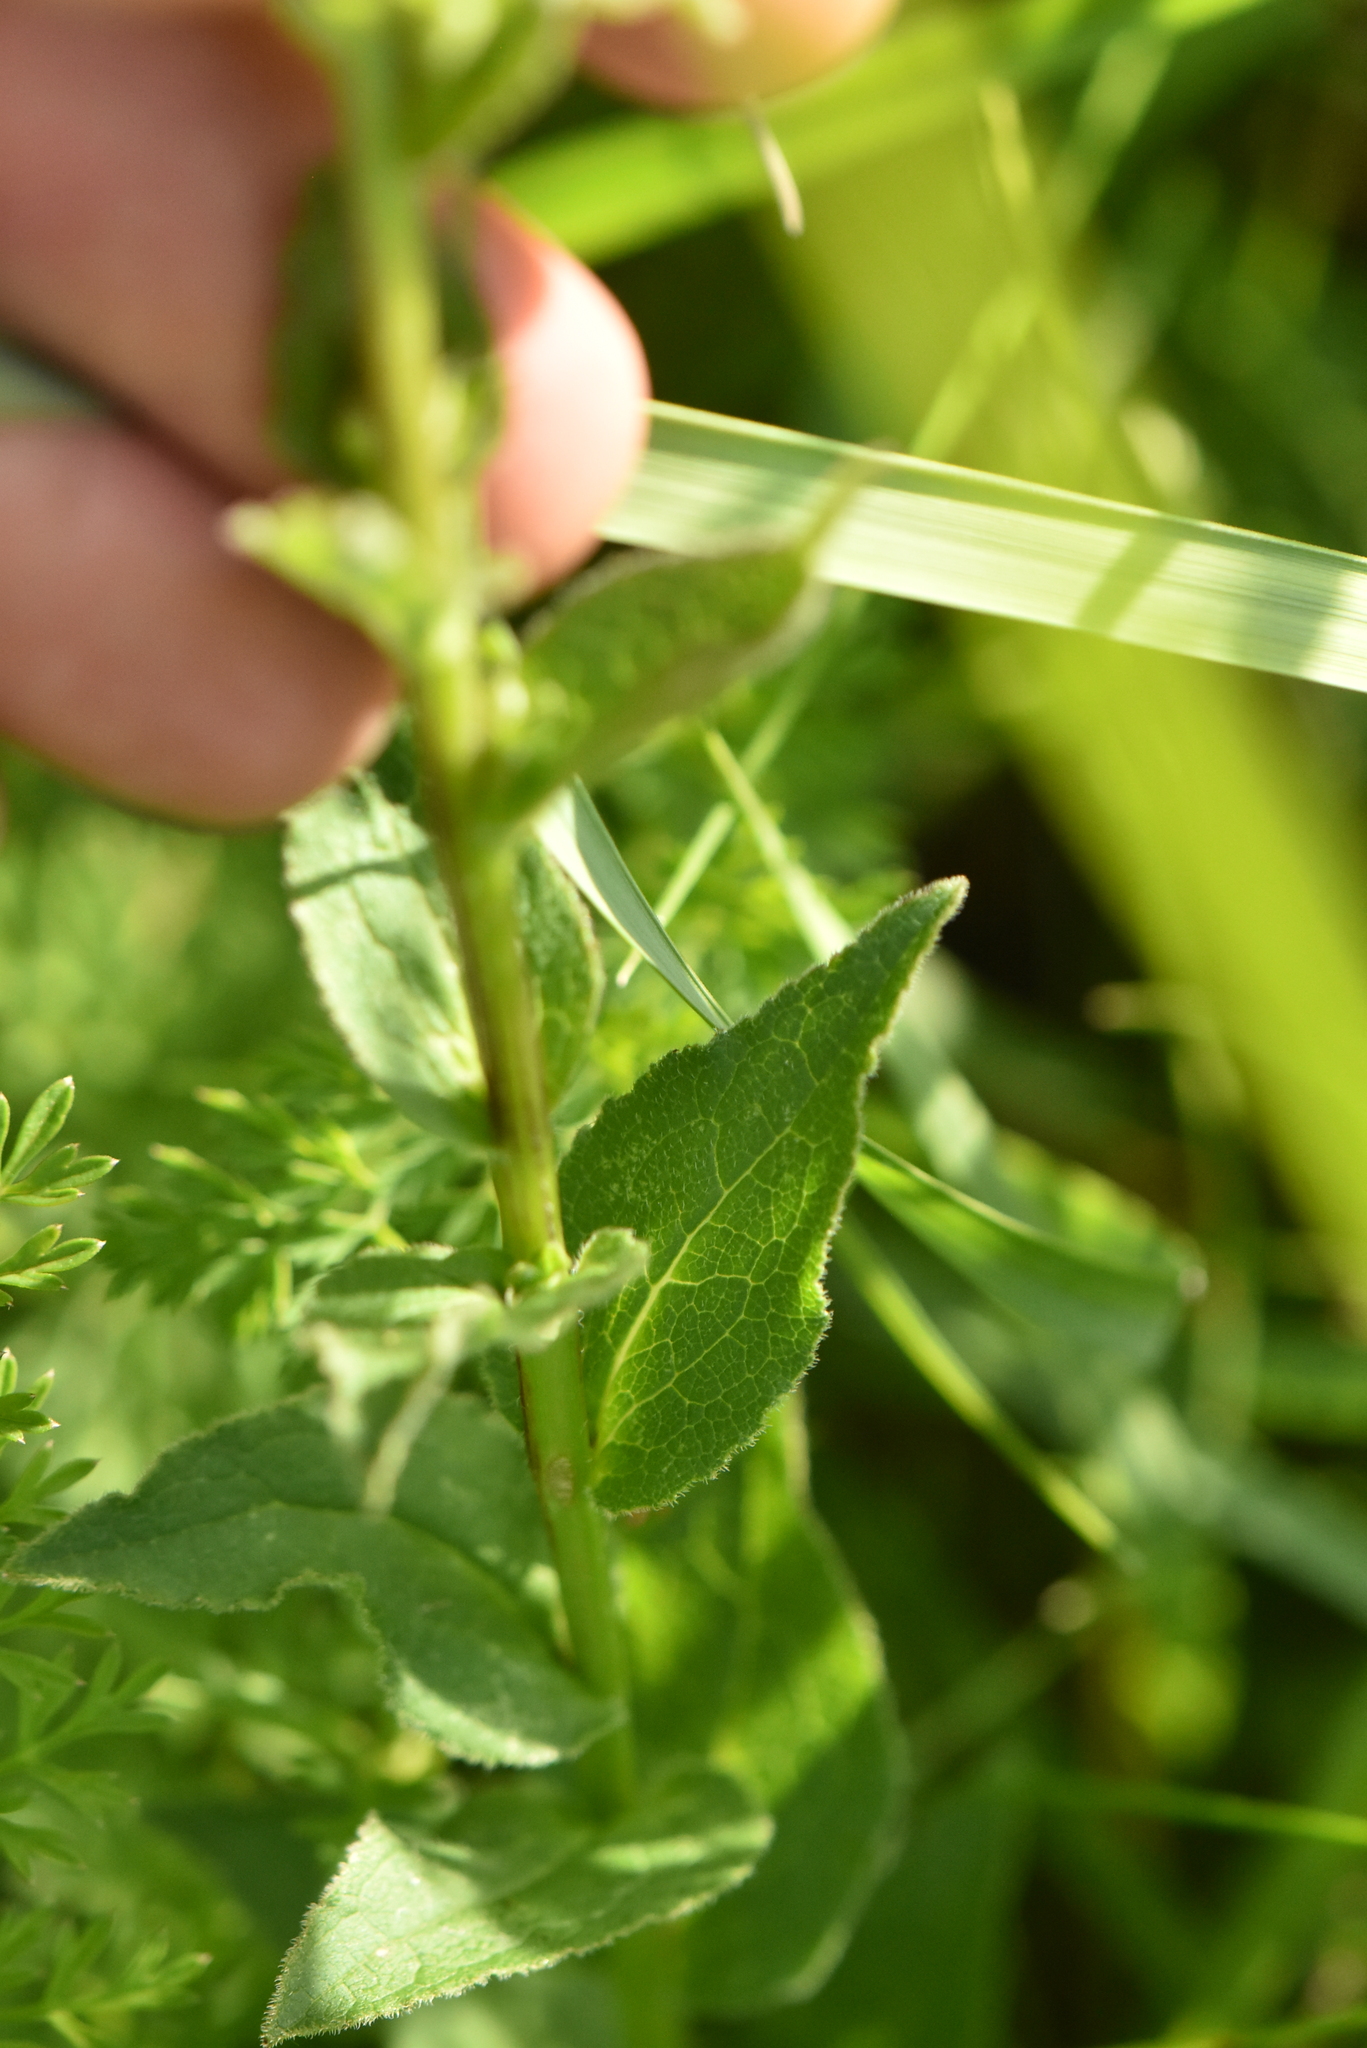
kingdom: Plantae
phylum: Tracheophyta
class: Magnoliopsida
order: Asterales
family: Campanulaceae
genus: Campanula
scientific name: Campanula glomerata
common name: Clustered bellflower
